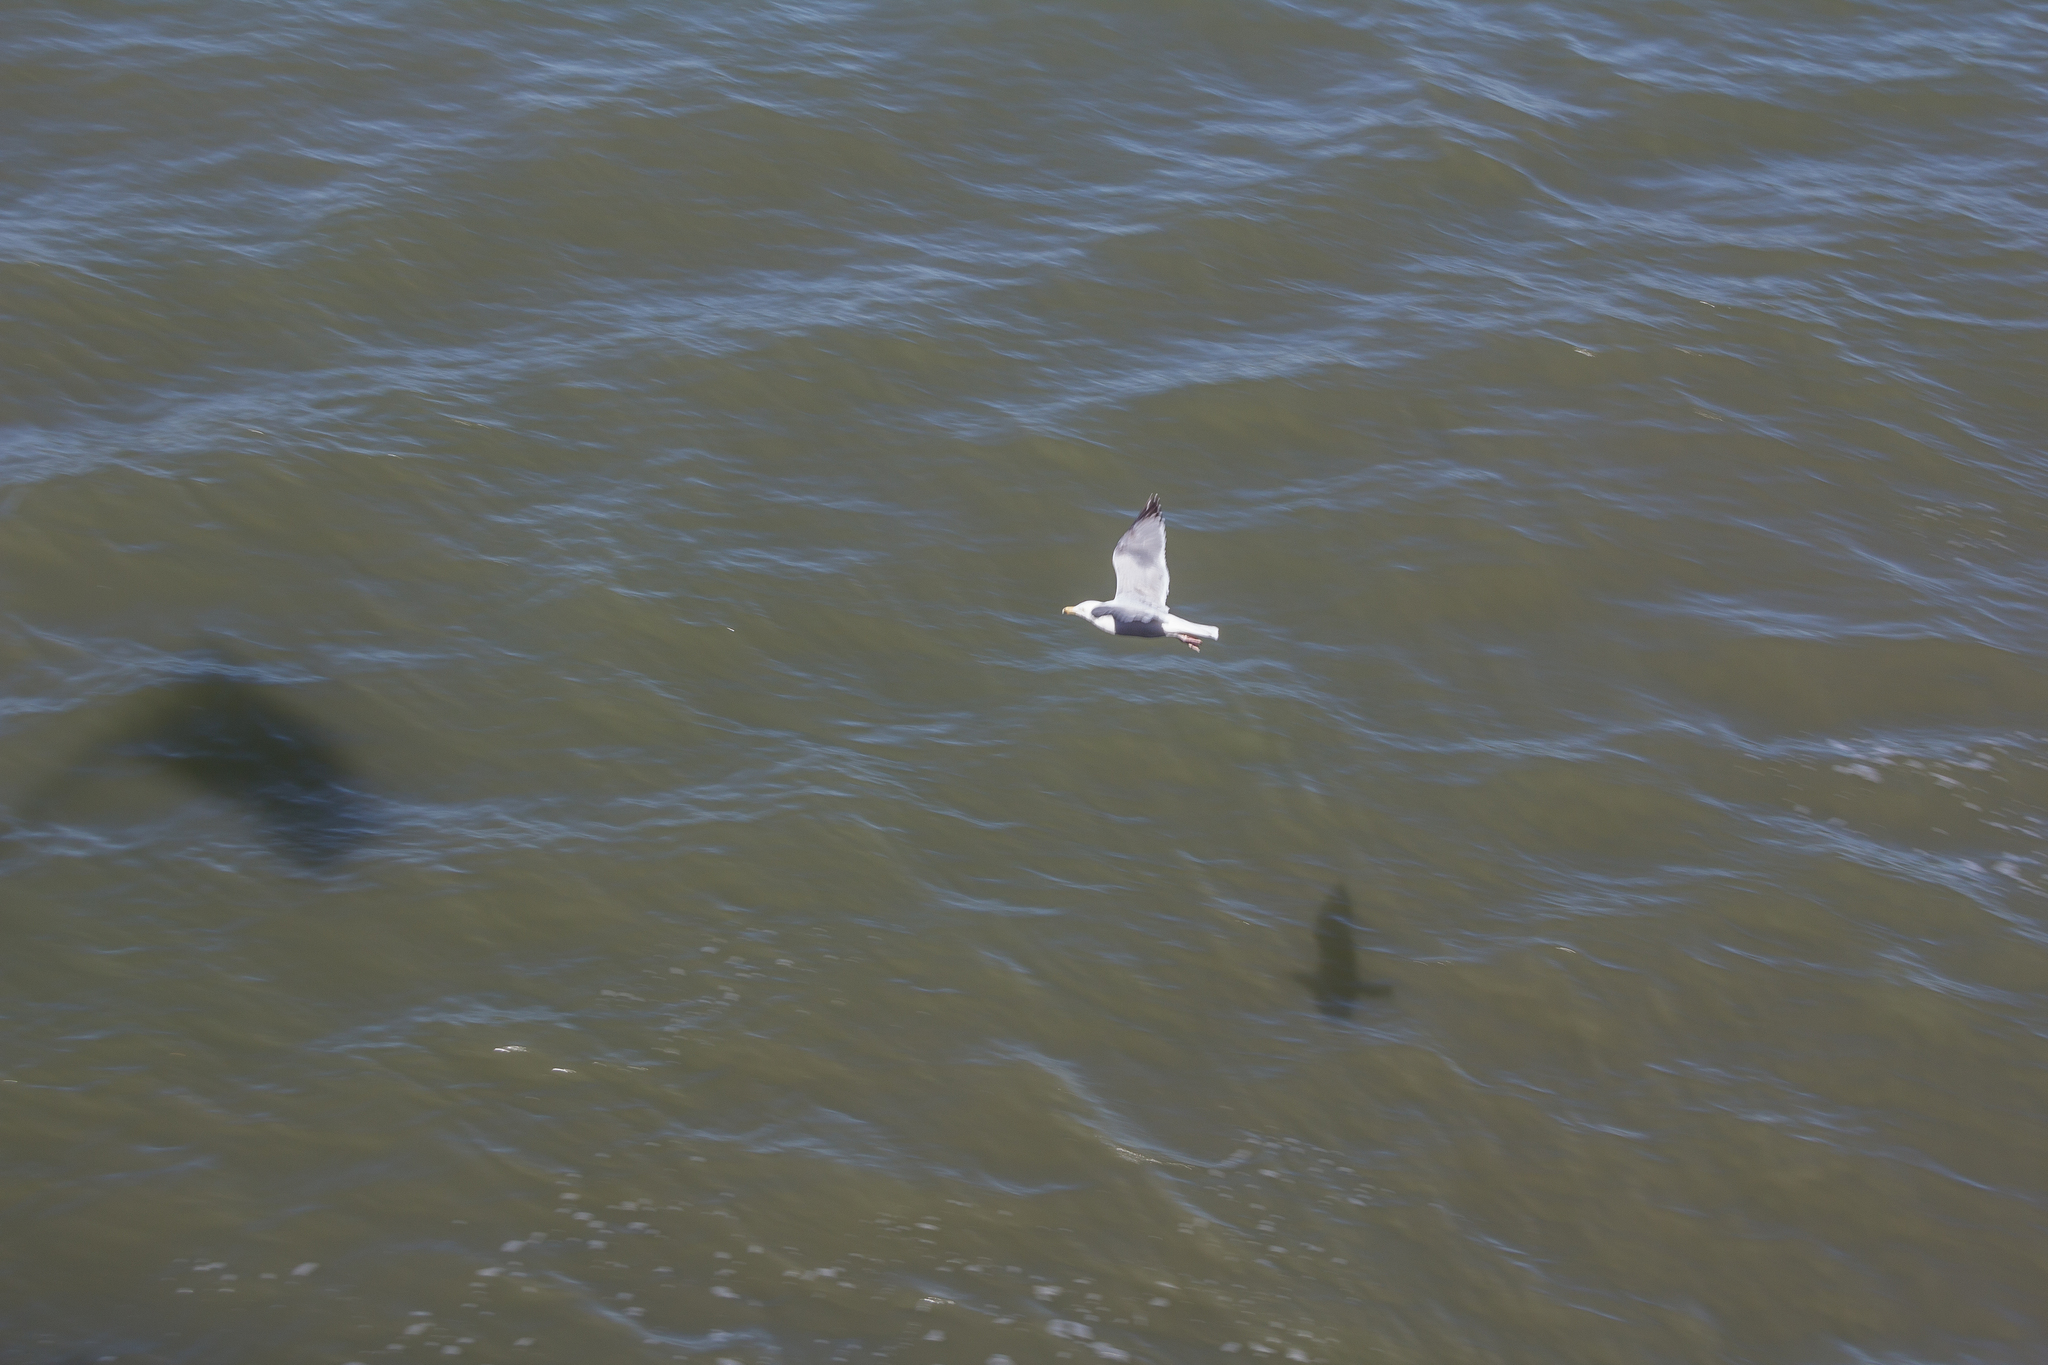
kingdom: Animalia
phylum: Chordata
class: Aves
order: Charadriiformes
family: Laridae
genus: Larus
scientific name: Larus argentatus
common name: Herring gull
